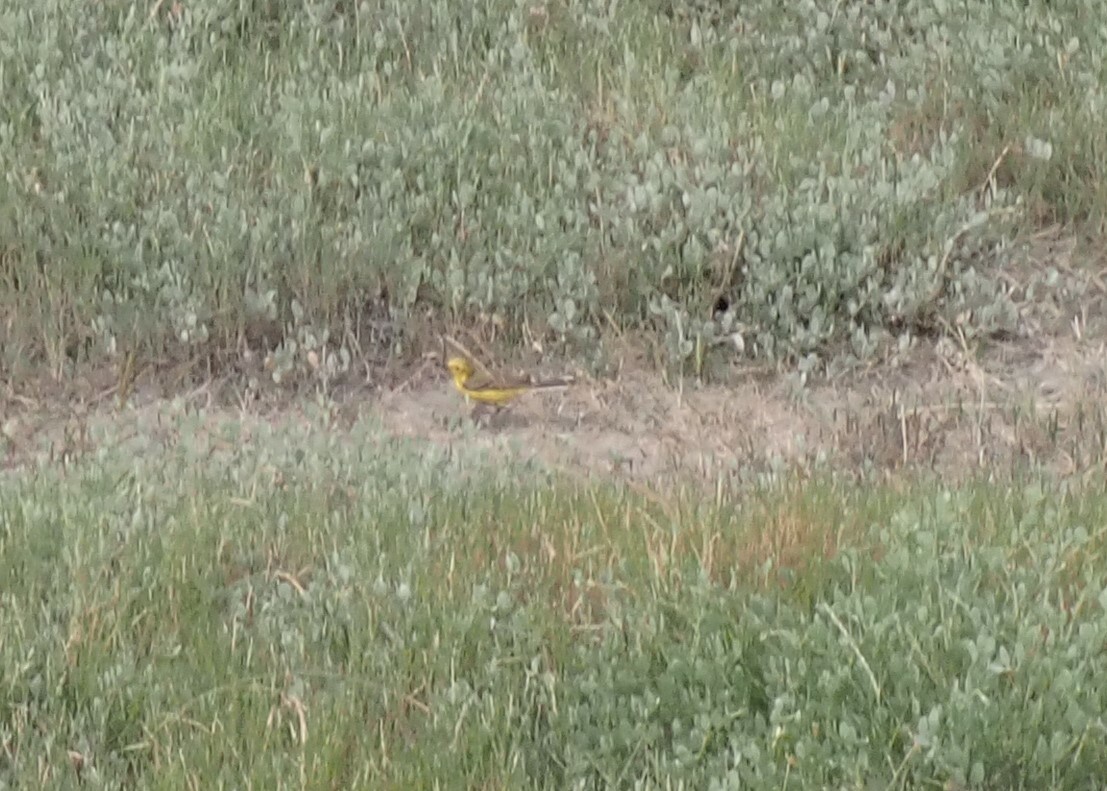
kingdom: Animalia
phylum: Chordata
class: Aves
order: Passeriformes
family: Motacillidae
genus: Motacilla
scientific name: Motacilla flava
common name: Western yellow wagtail
